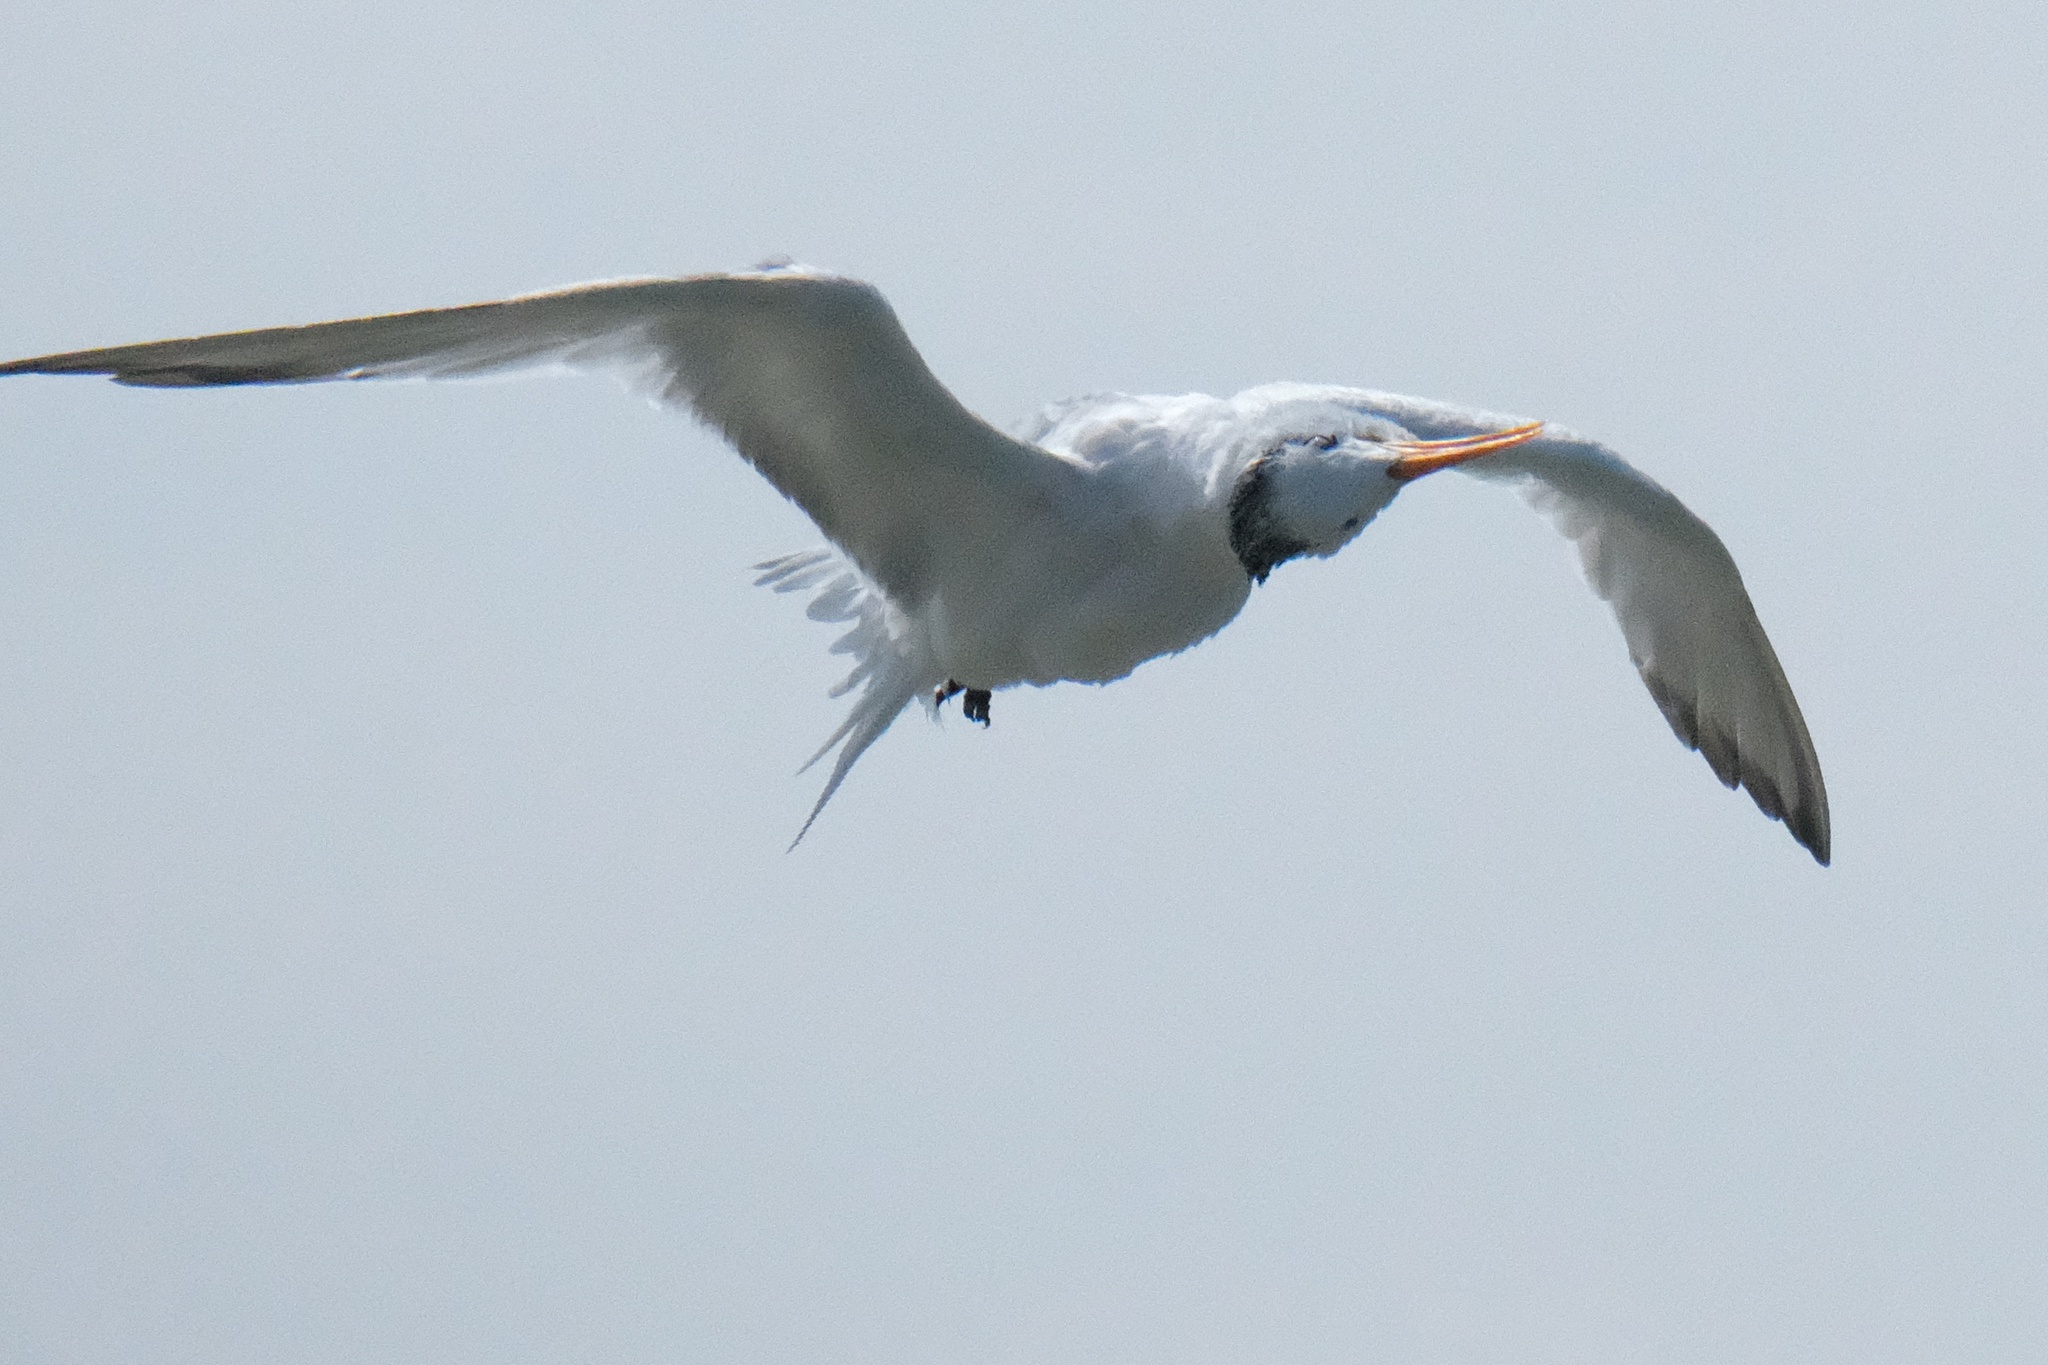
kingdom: Animalia
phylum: Chordata
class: Aves
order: Charadriiformes
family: Laridae
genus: Thalasseus
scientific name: Thalasseus elegans
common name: Elegant tern
